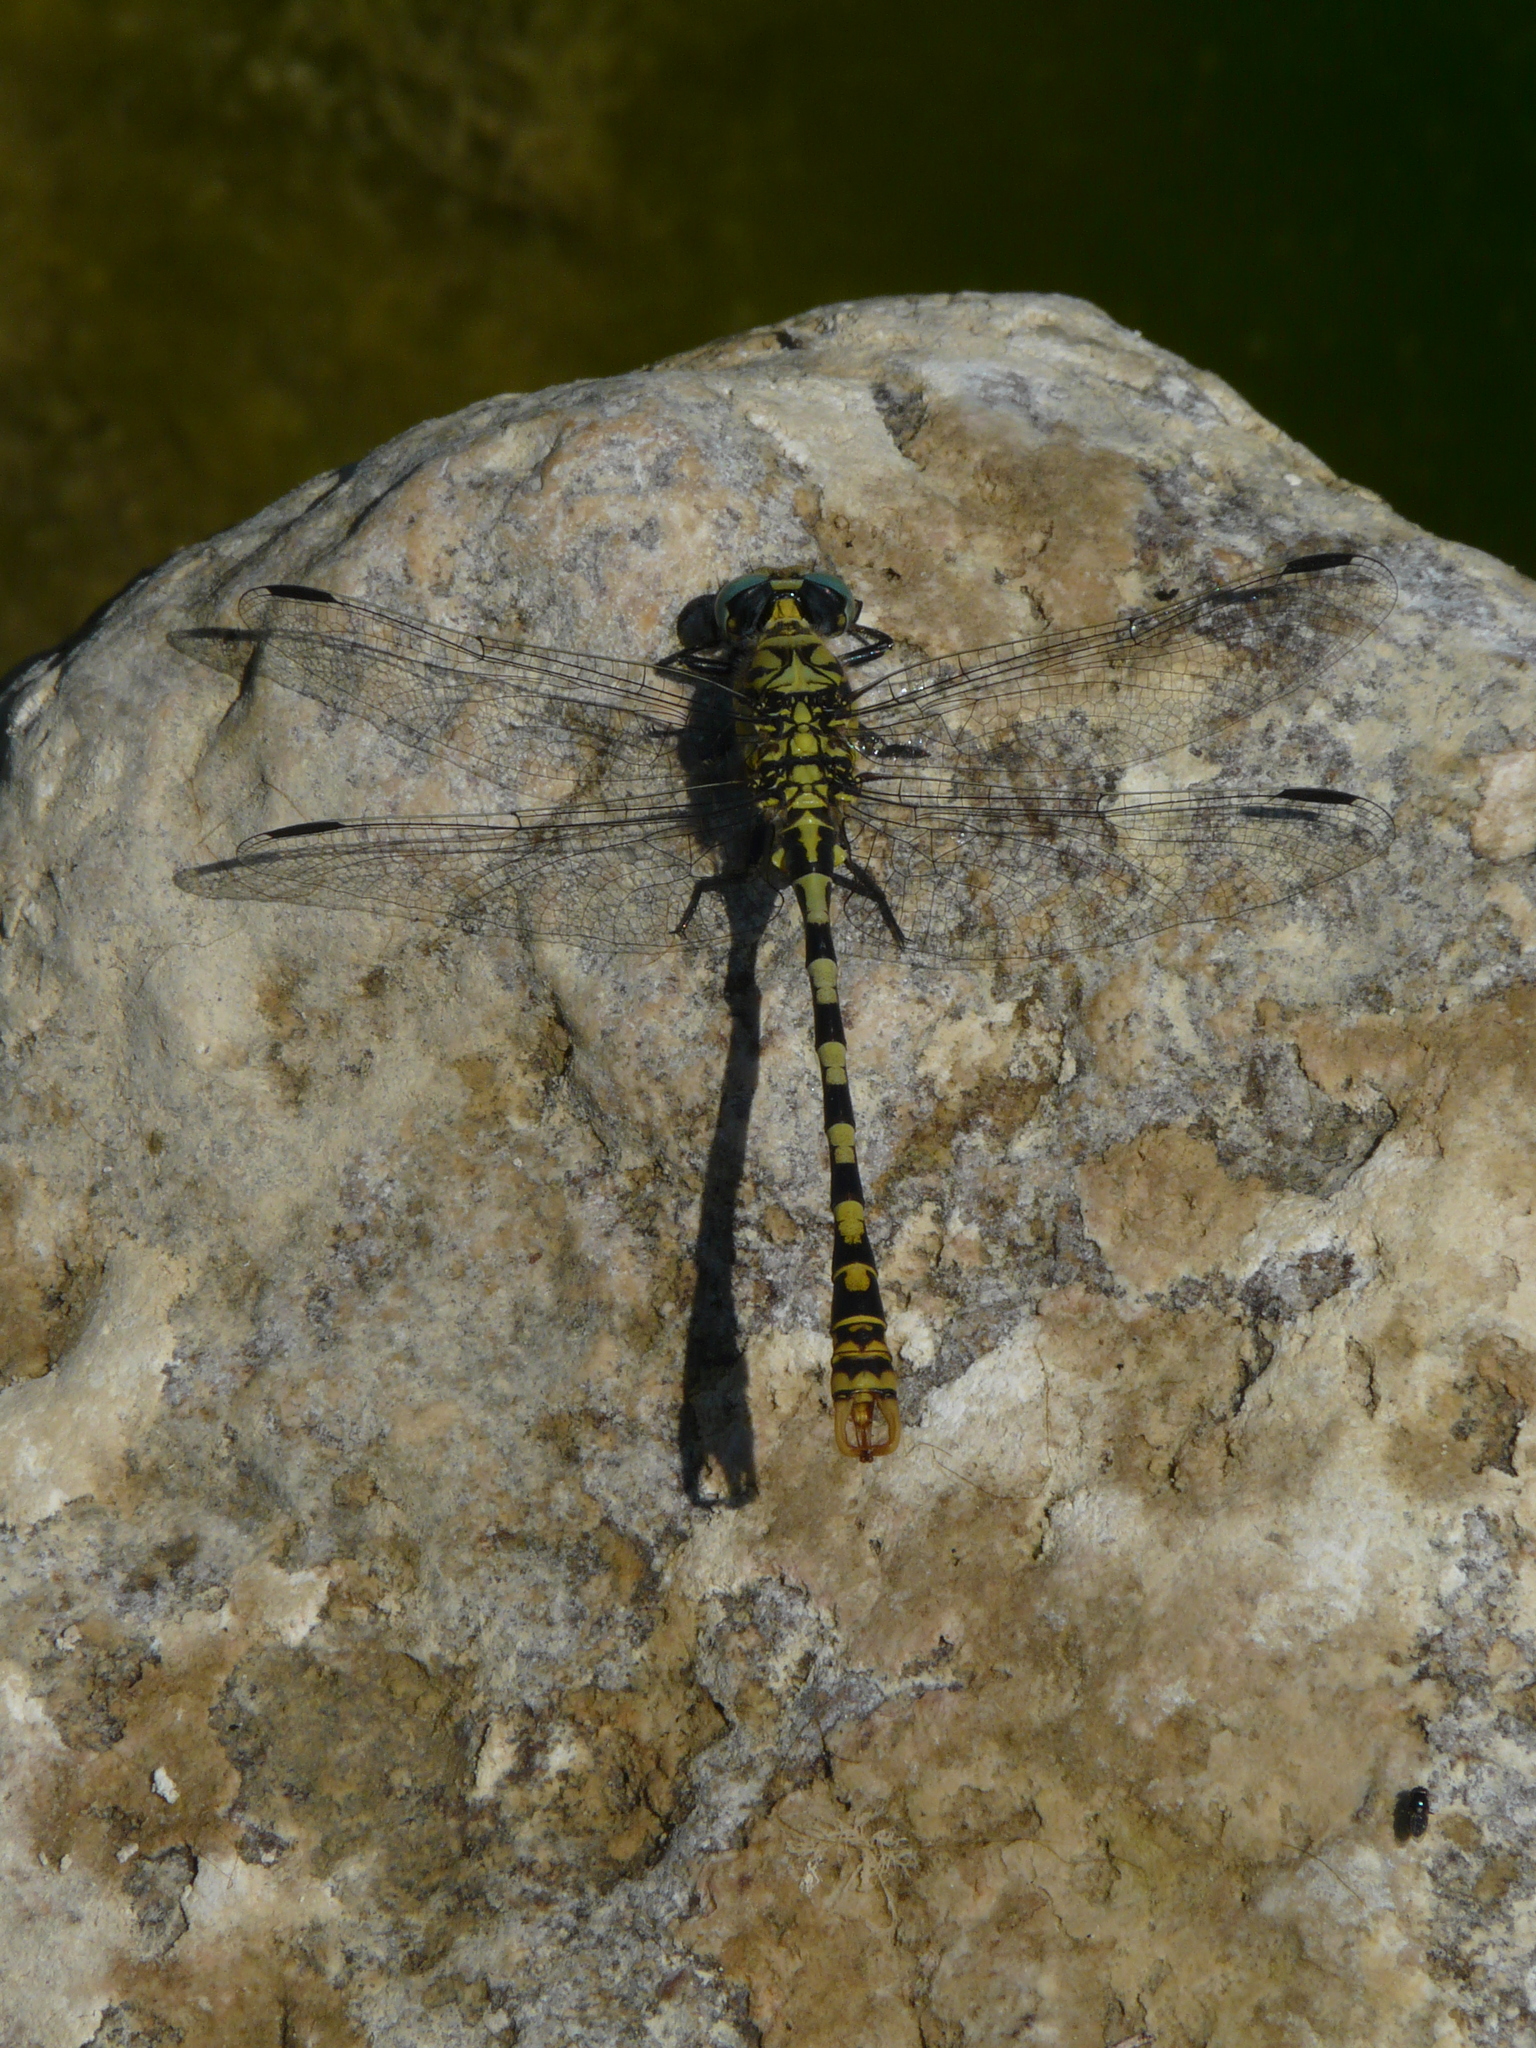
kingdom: Animalia
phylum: Arthropoda
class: Insecta
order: Odonata
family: Gomphidae
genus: Onychogomphus
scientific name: Onychogomphus forcipatus
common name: Small pincertail
